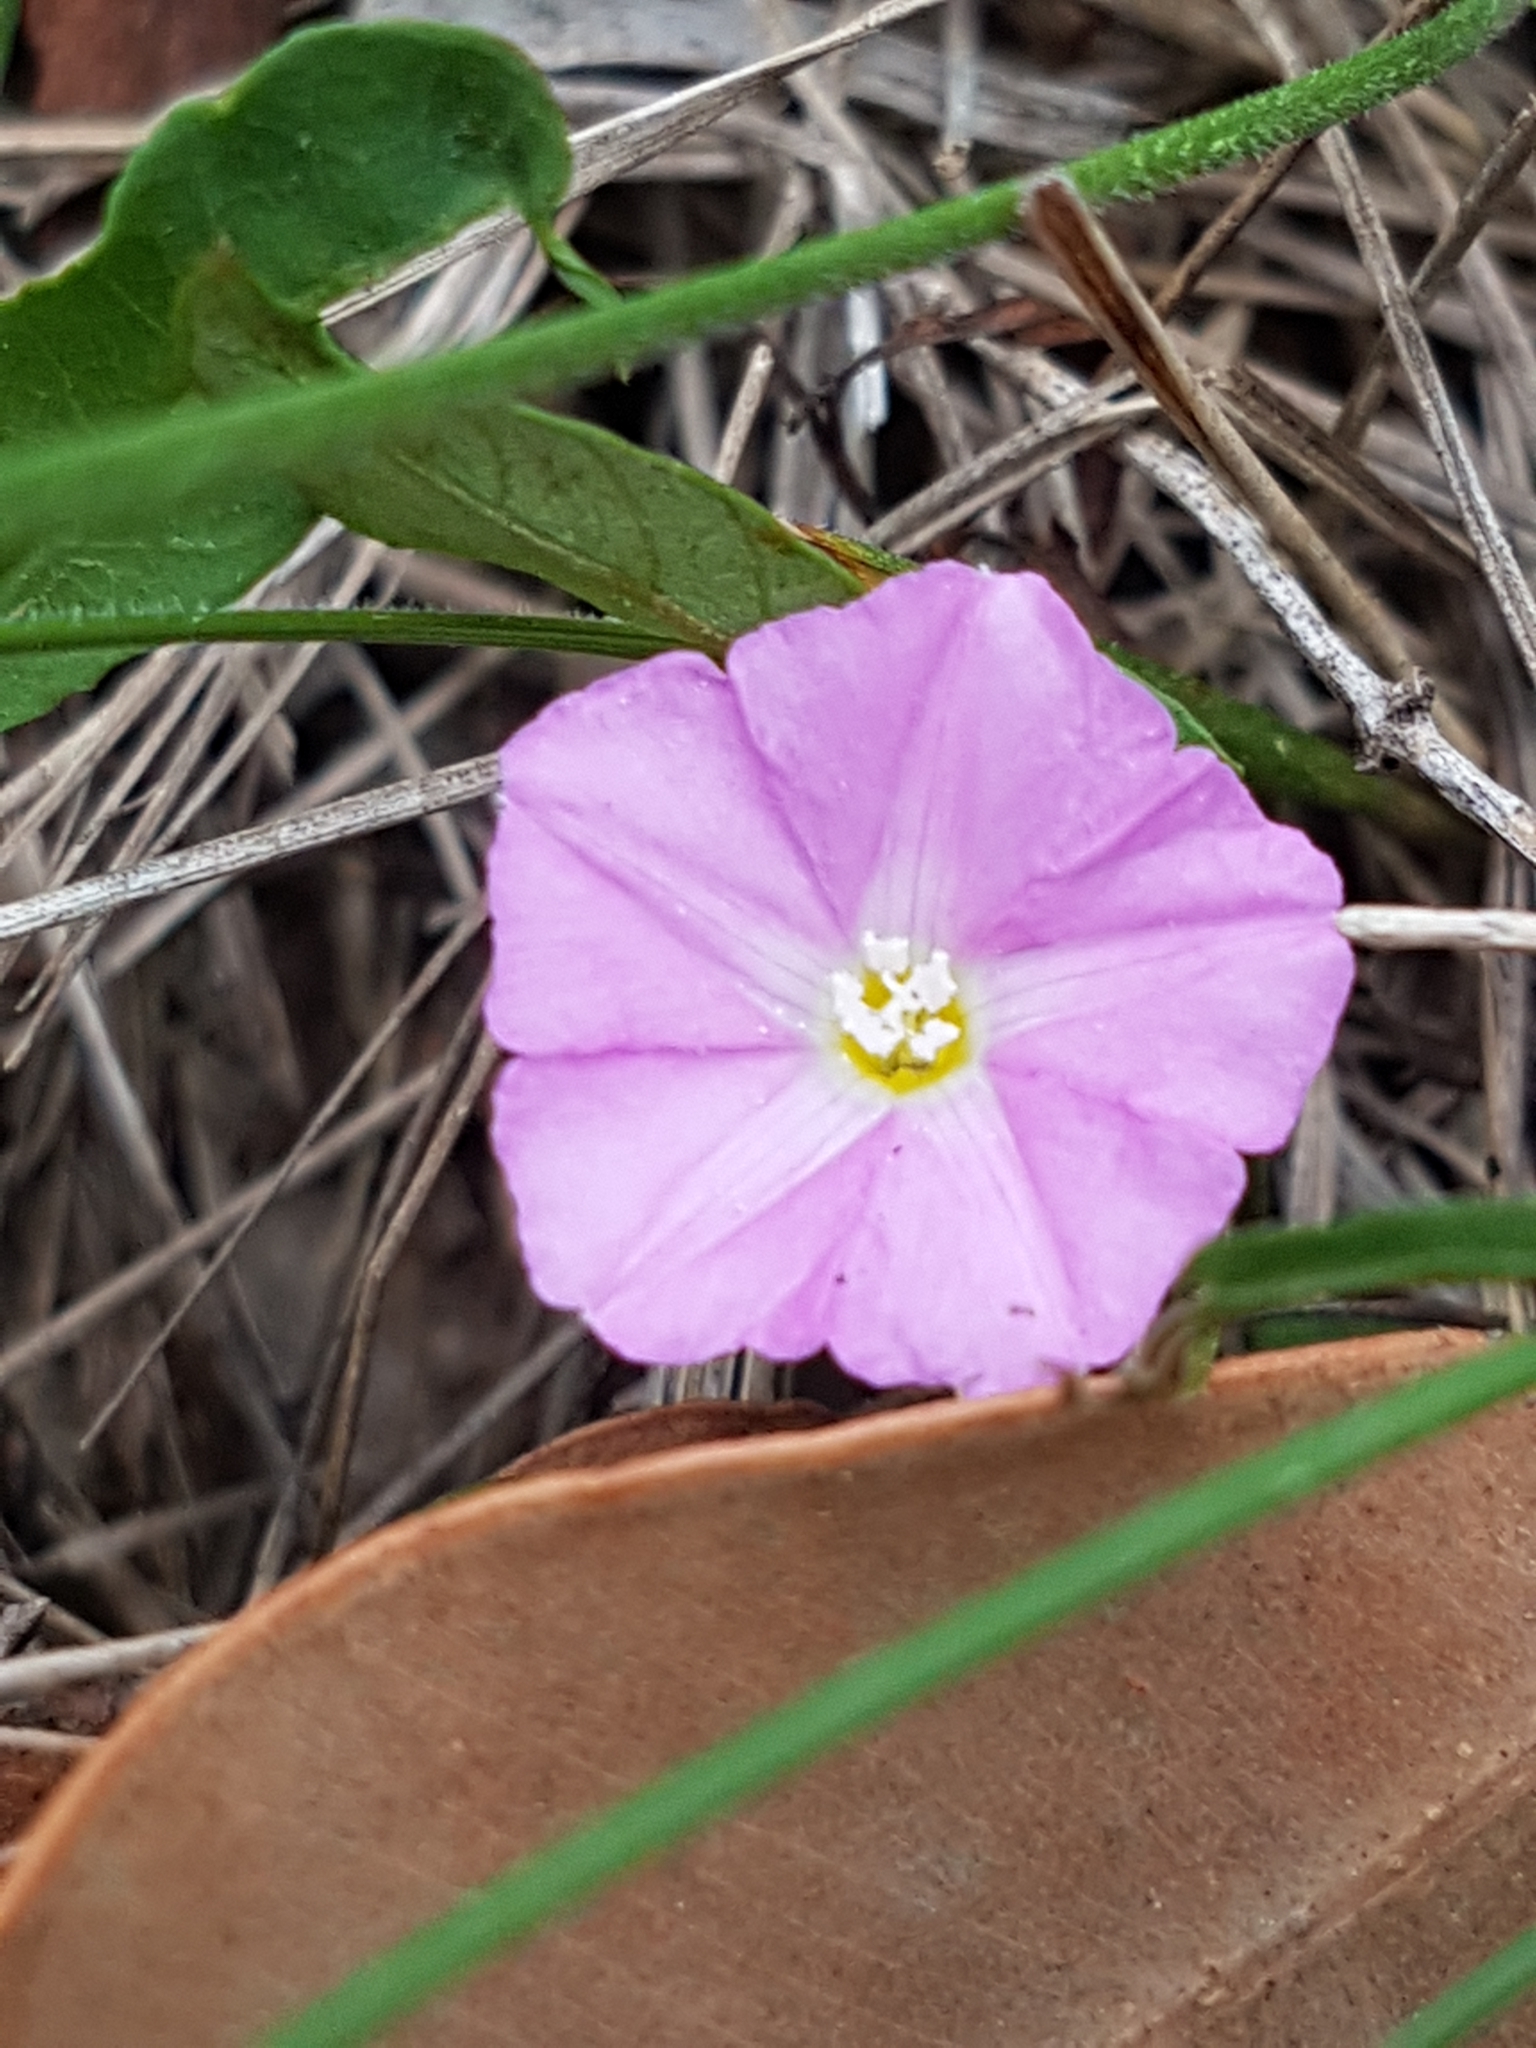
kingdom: Plantae
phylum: Tracheophyta
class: Magnoliopsida
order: Solanales
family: Convolvulaceae
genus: Convolvulus
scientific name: Convolvulus erubescens
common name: Australian bindweed
